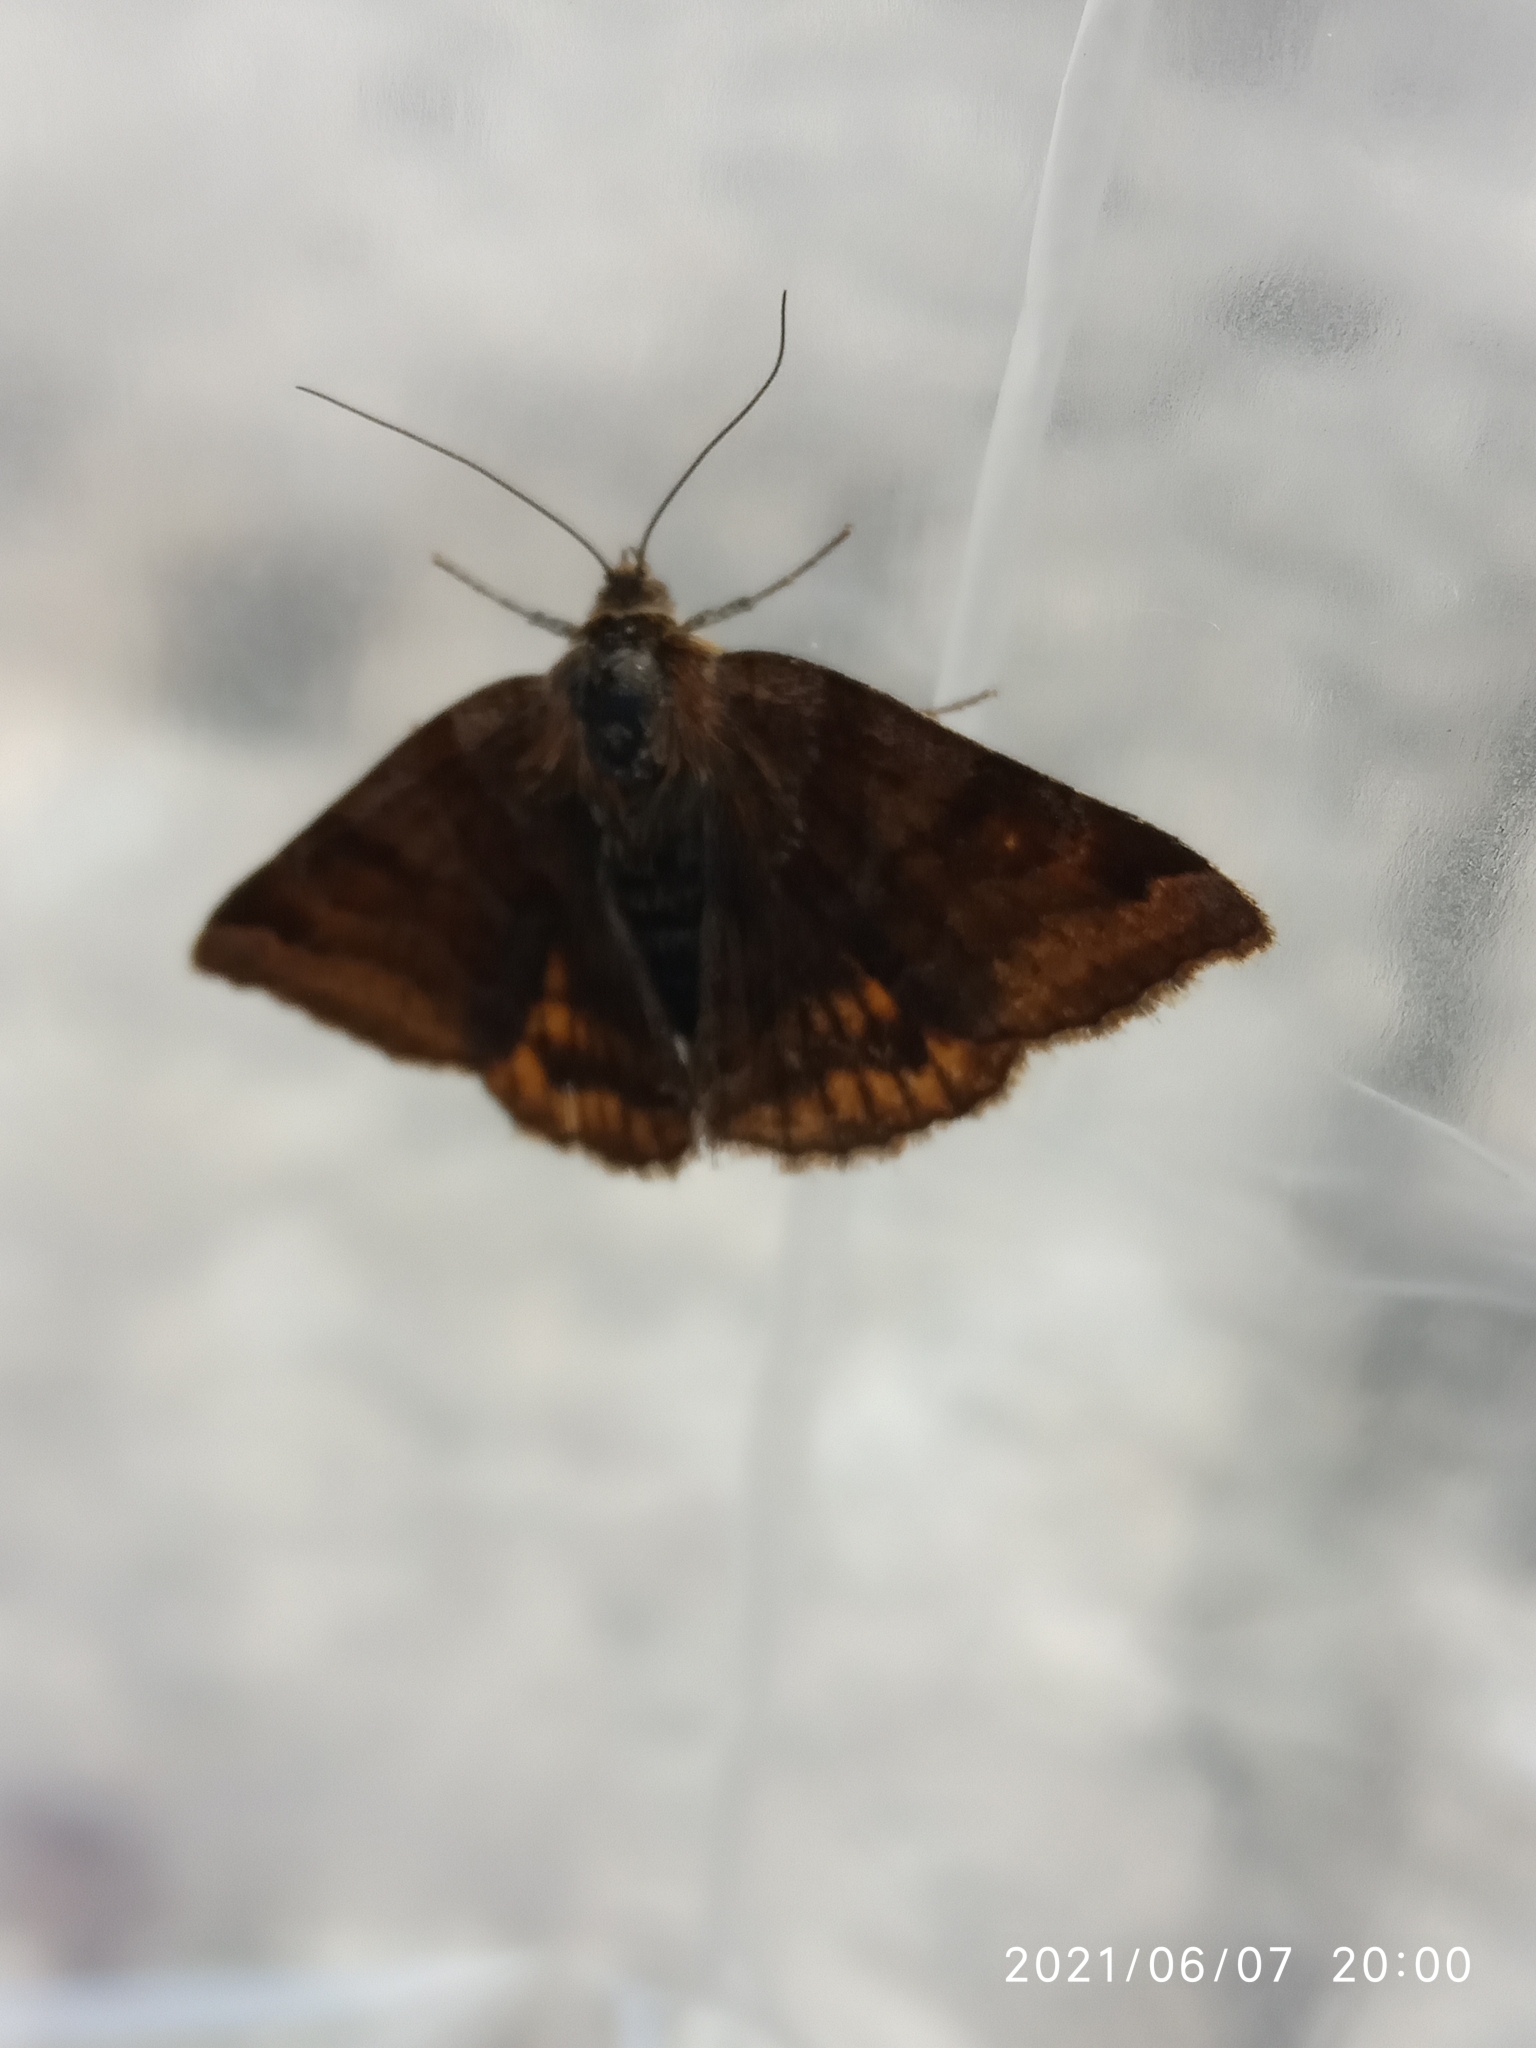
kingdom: Animalia
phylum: Arthropoda
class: Insecta
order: Lepidoptera
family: Erebidae
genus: Euclidia
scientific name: Euclidia glyphica
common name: Burnet companion
